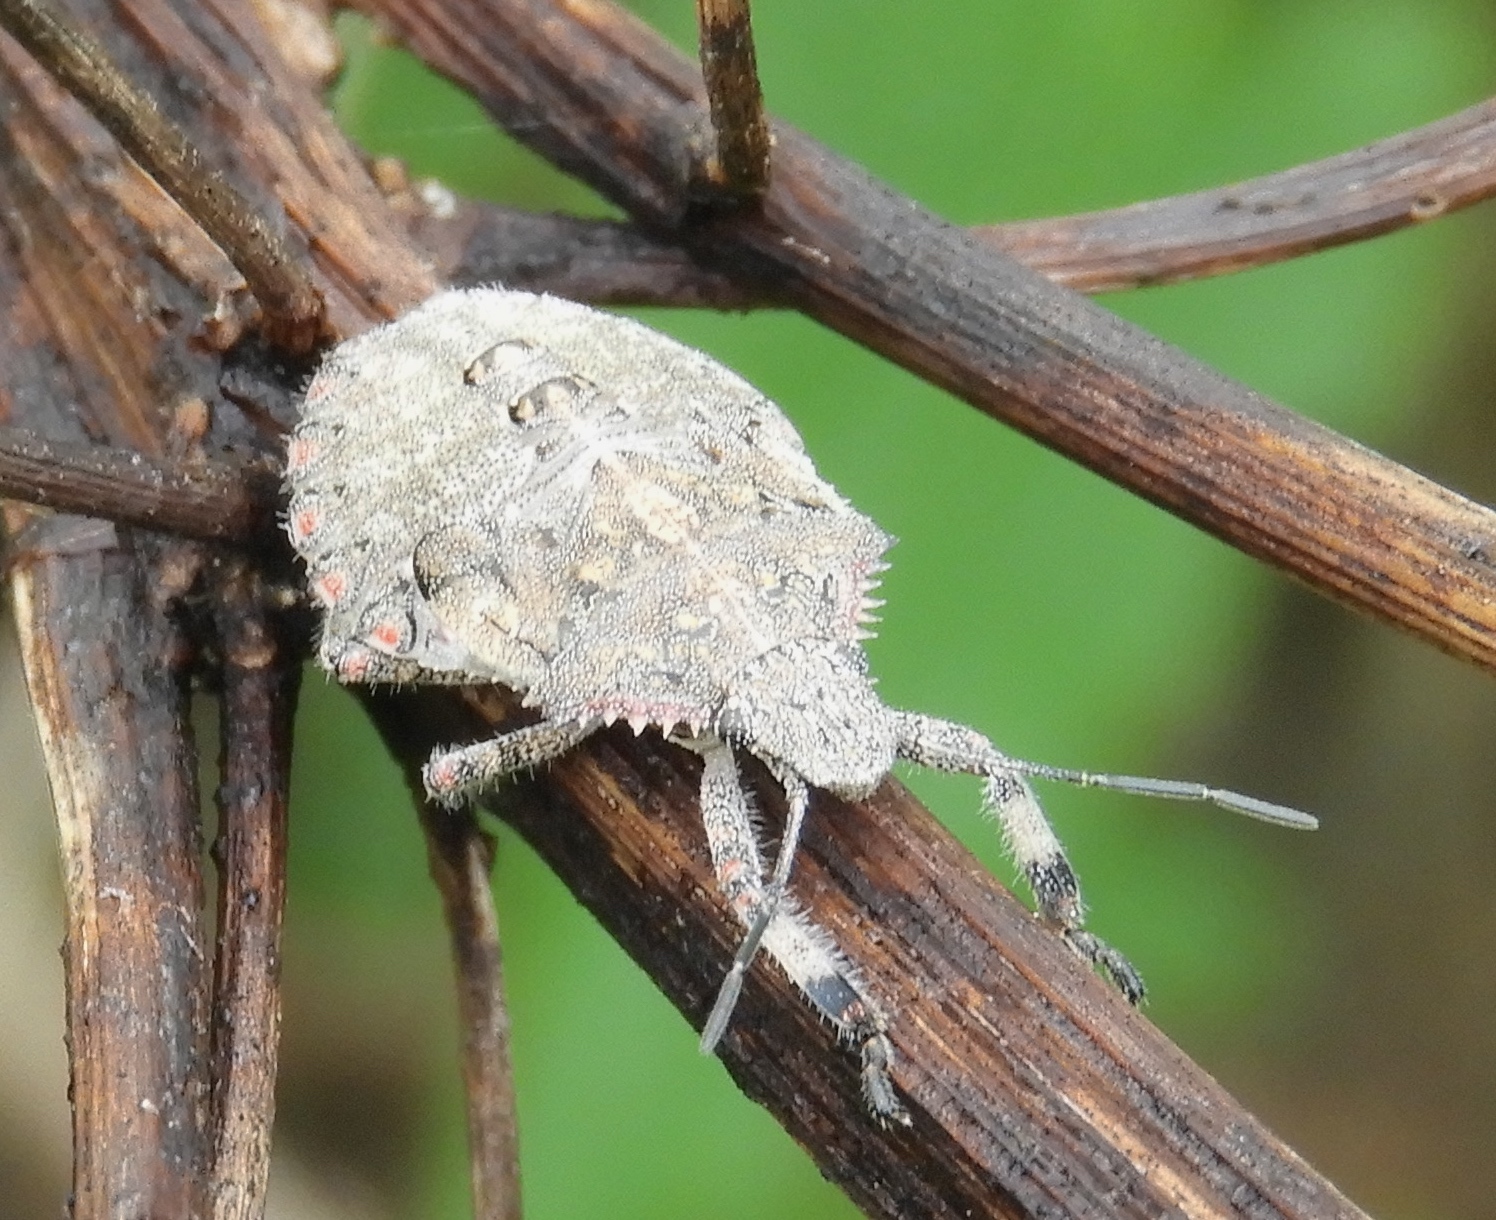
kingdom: Animalia
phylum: Arthropoda
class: Insecta
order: Hemiptera
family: Pentatomidae
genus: Brochymena
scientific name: Brochymena
